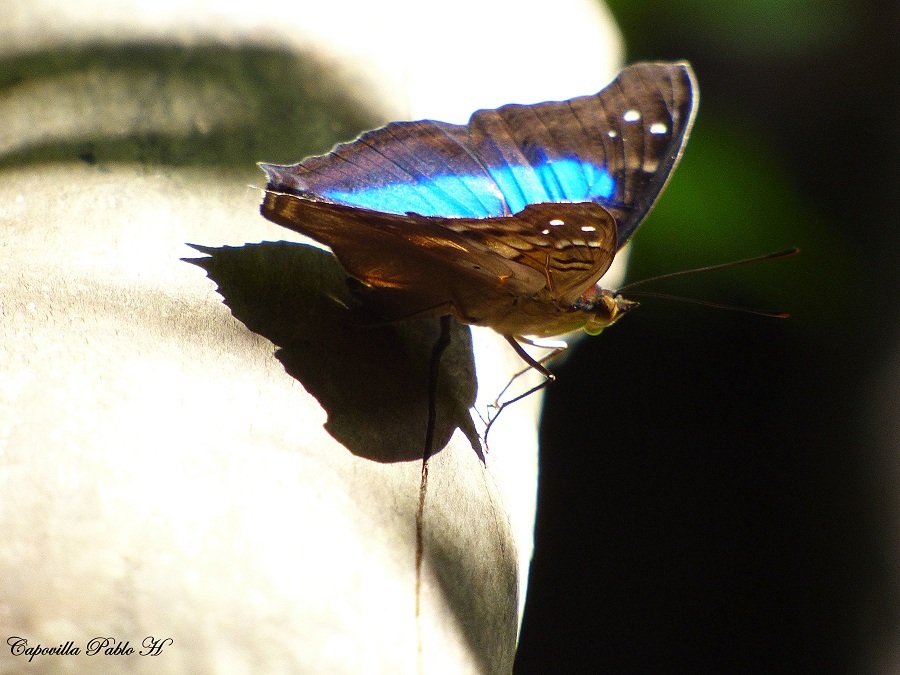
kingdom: Animalia
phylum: Arthropoda
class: Insecta
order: Lepidoptera
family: Nymphalidae
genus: Doxocopa
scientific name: Doxocopa laurentia
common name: Turquoise emperor
